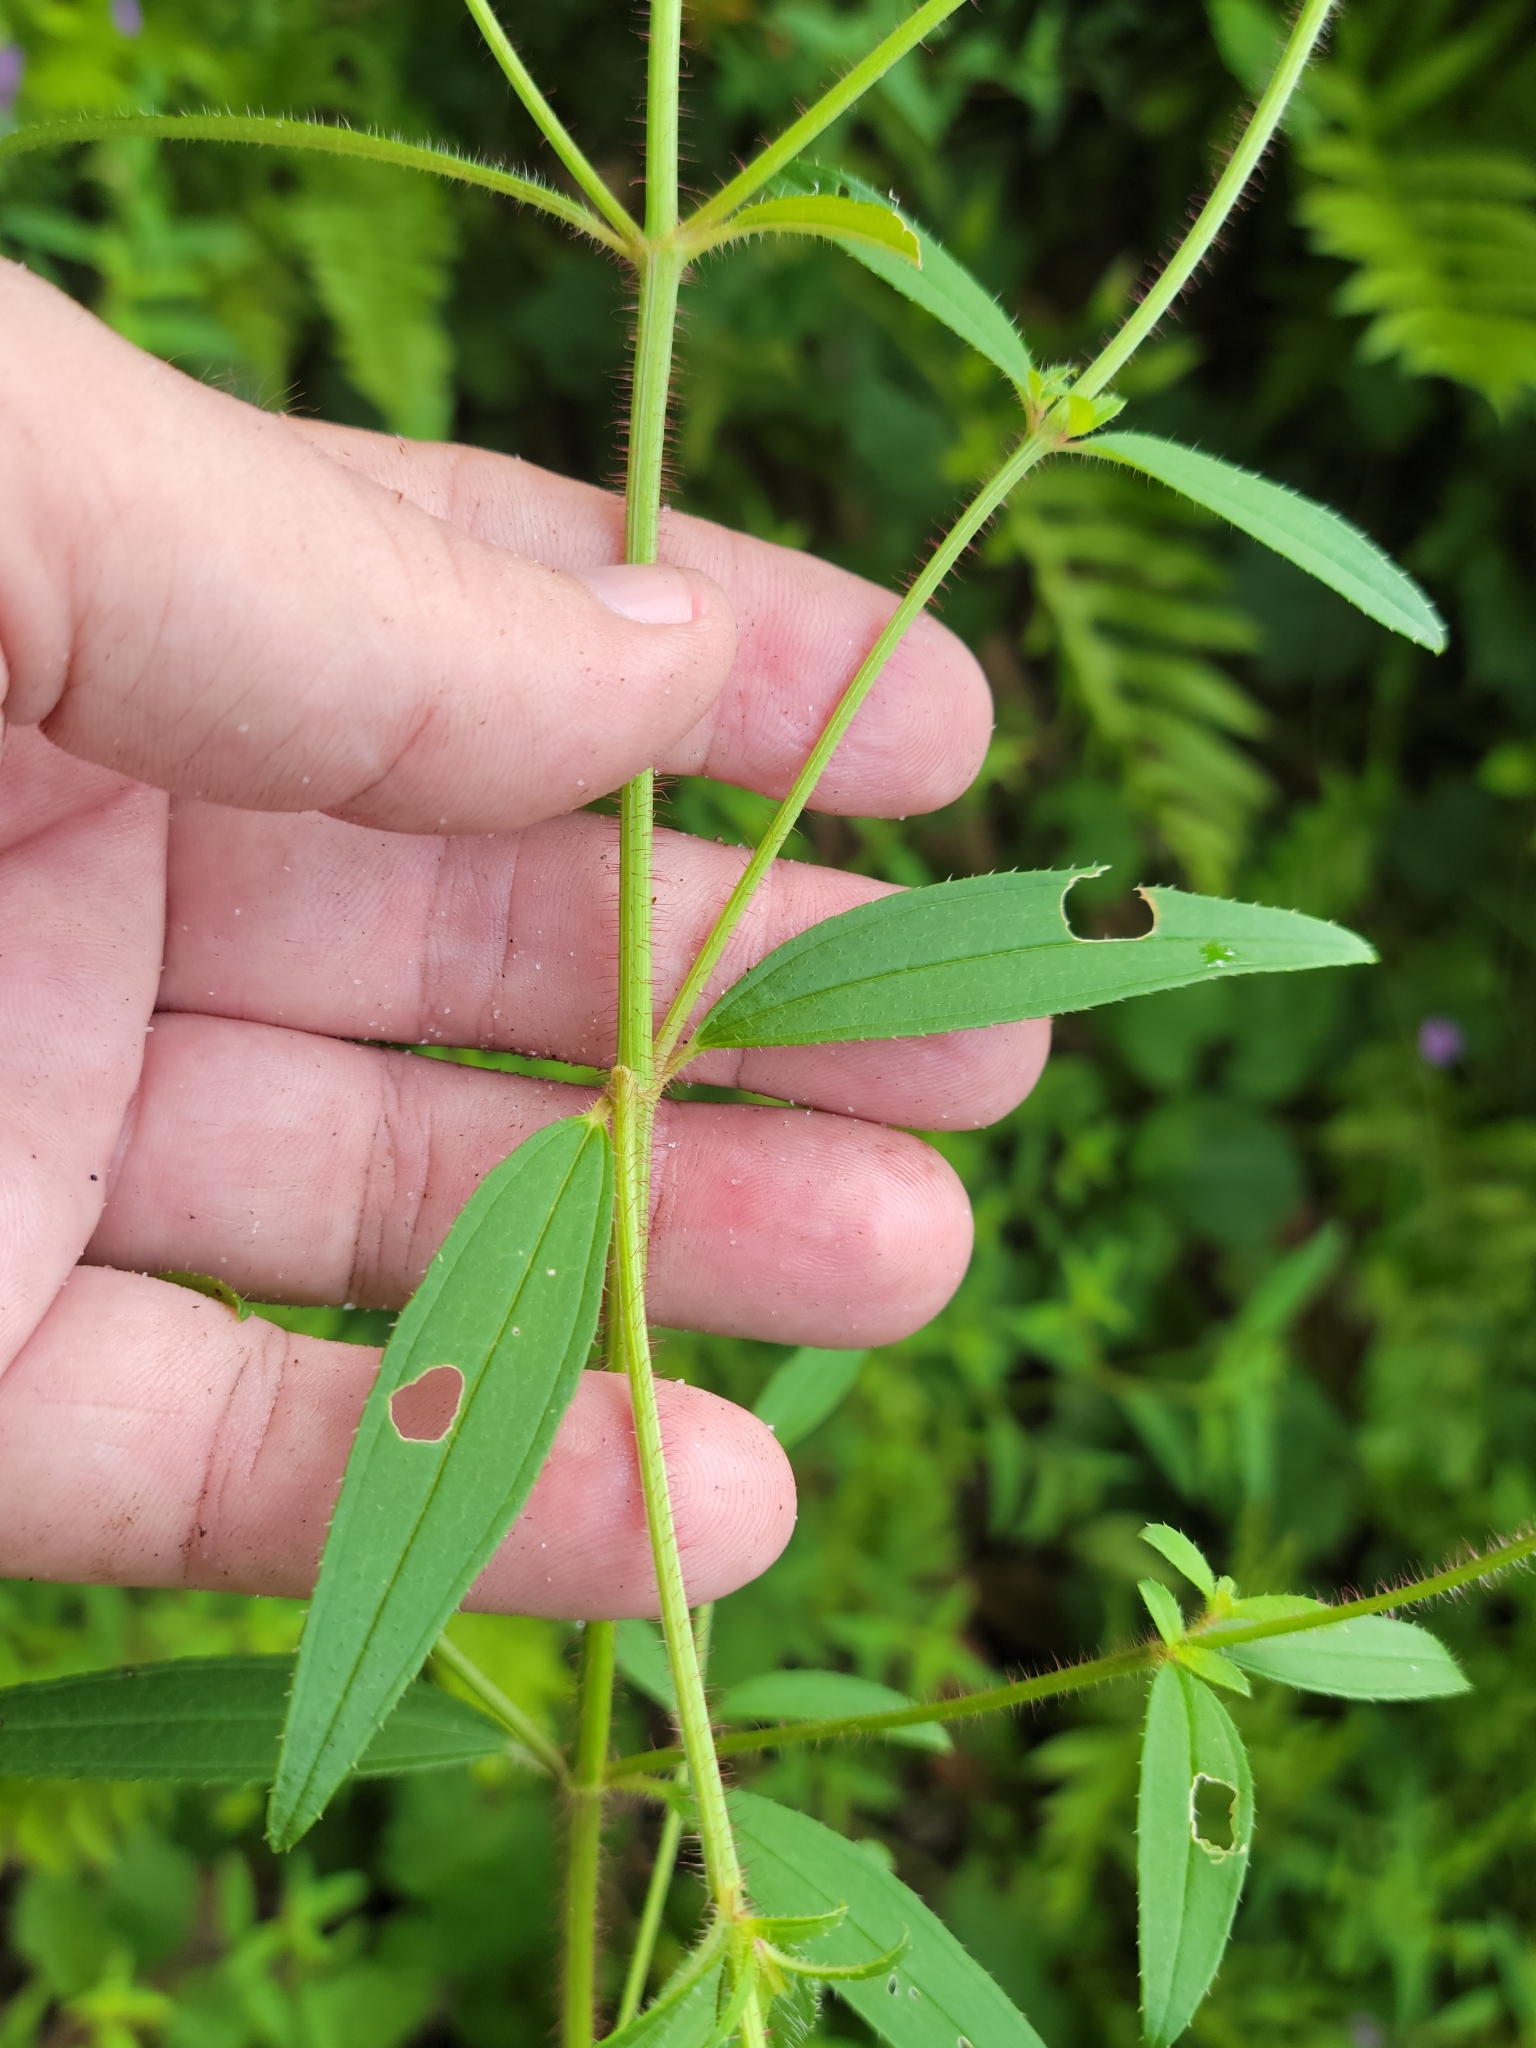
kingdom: Plantae
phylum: Tracheophyta
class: Magnoliopsida
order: Myrtales
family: Melastomataceae
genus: Rhexia
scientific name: Rhexia nashii
